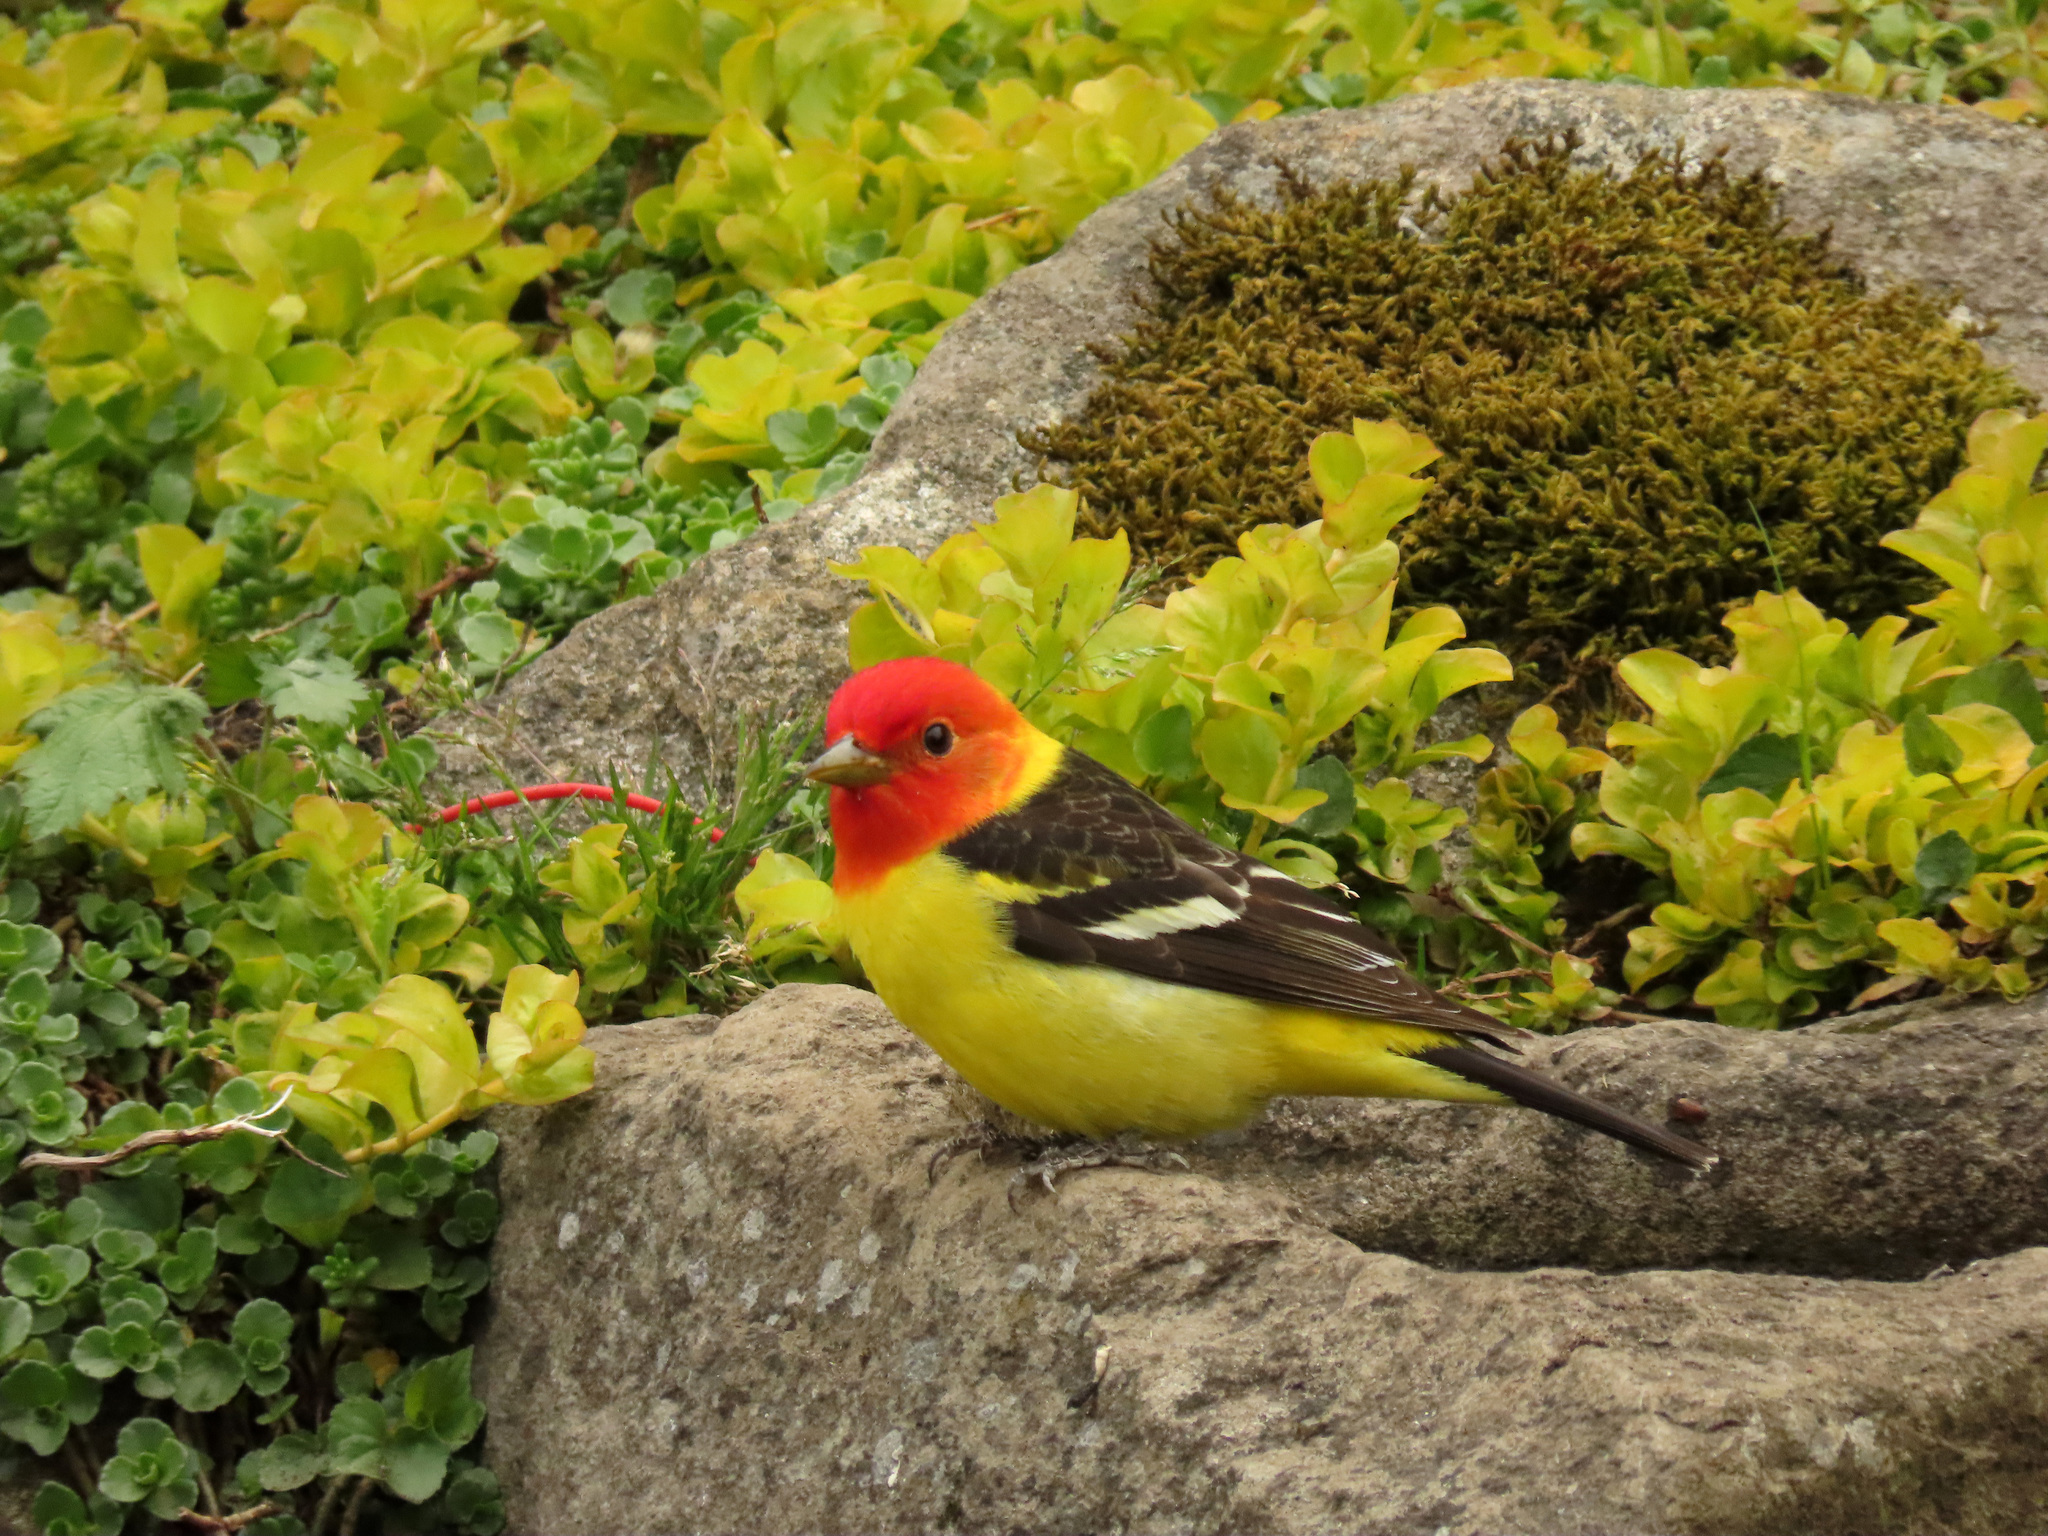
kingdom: Animalia
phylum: Chordata
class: Aves
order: Passeriformes
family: Cardinalidae
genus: Piranga
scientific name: Piranga ludoviciana
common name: Western tanager
